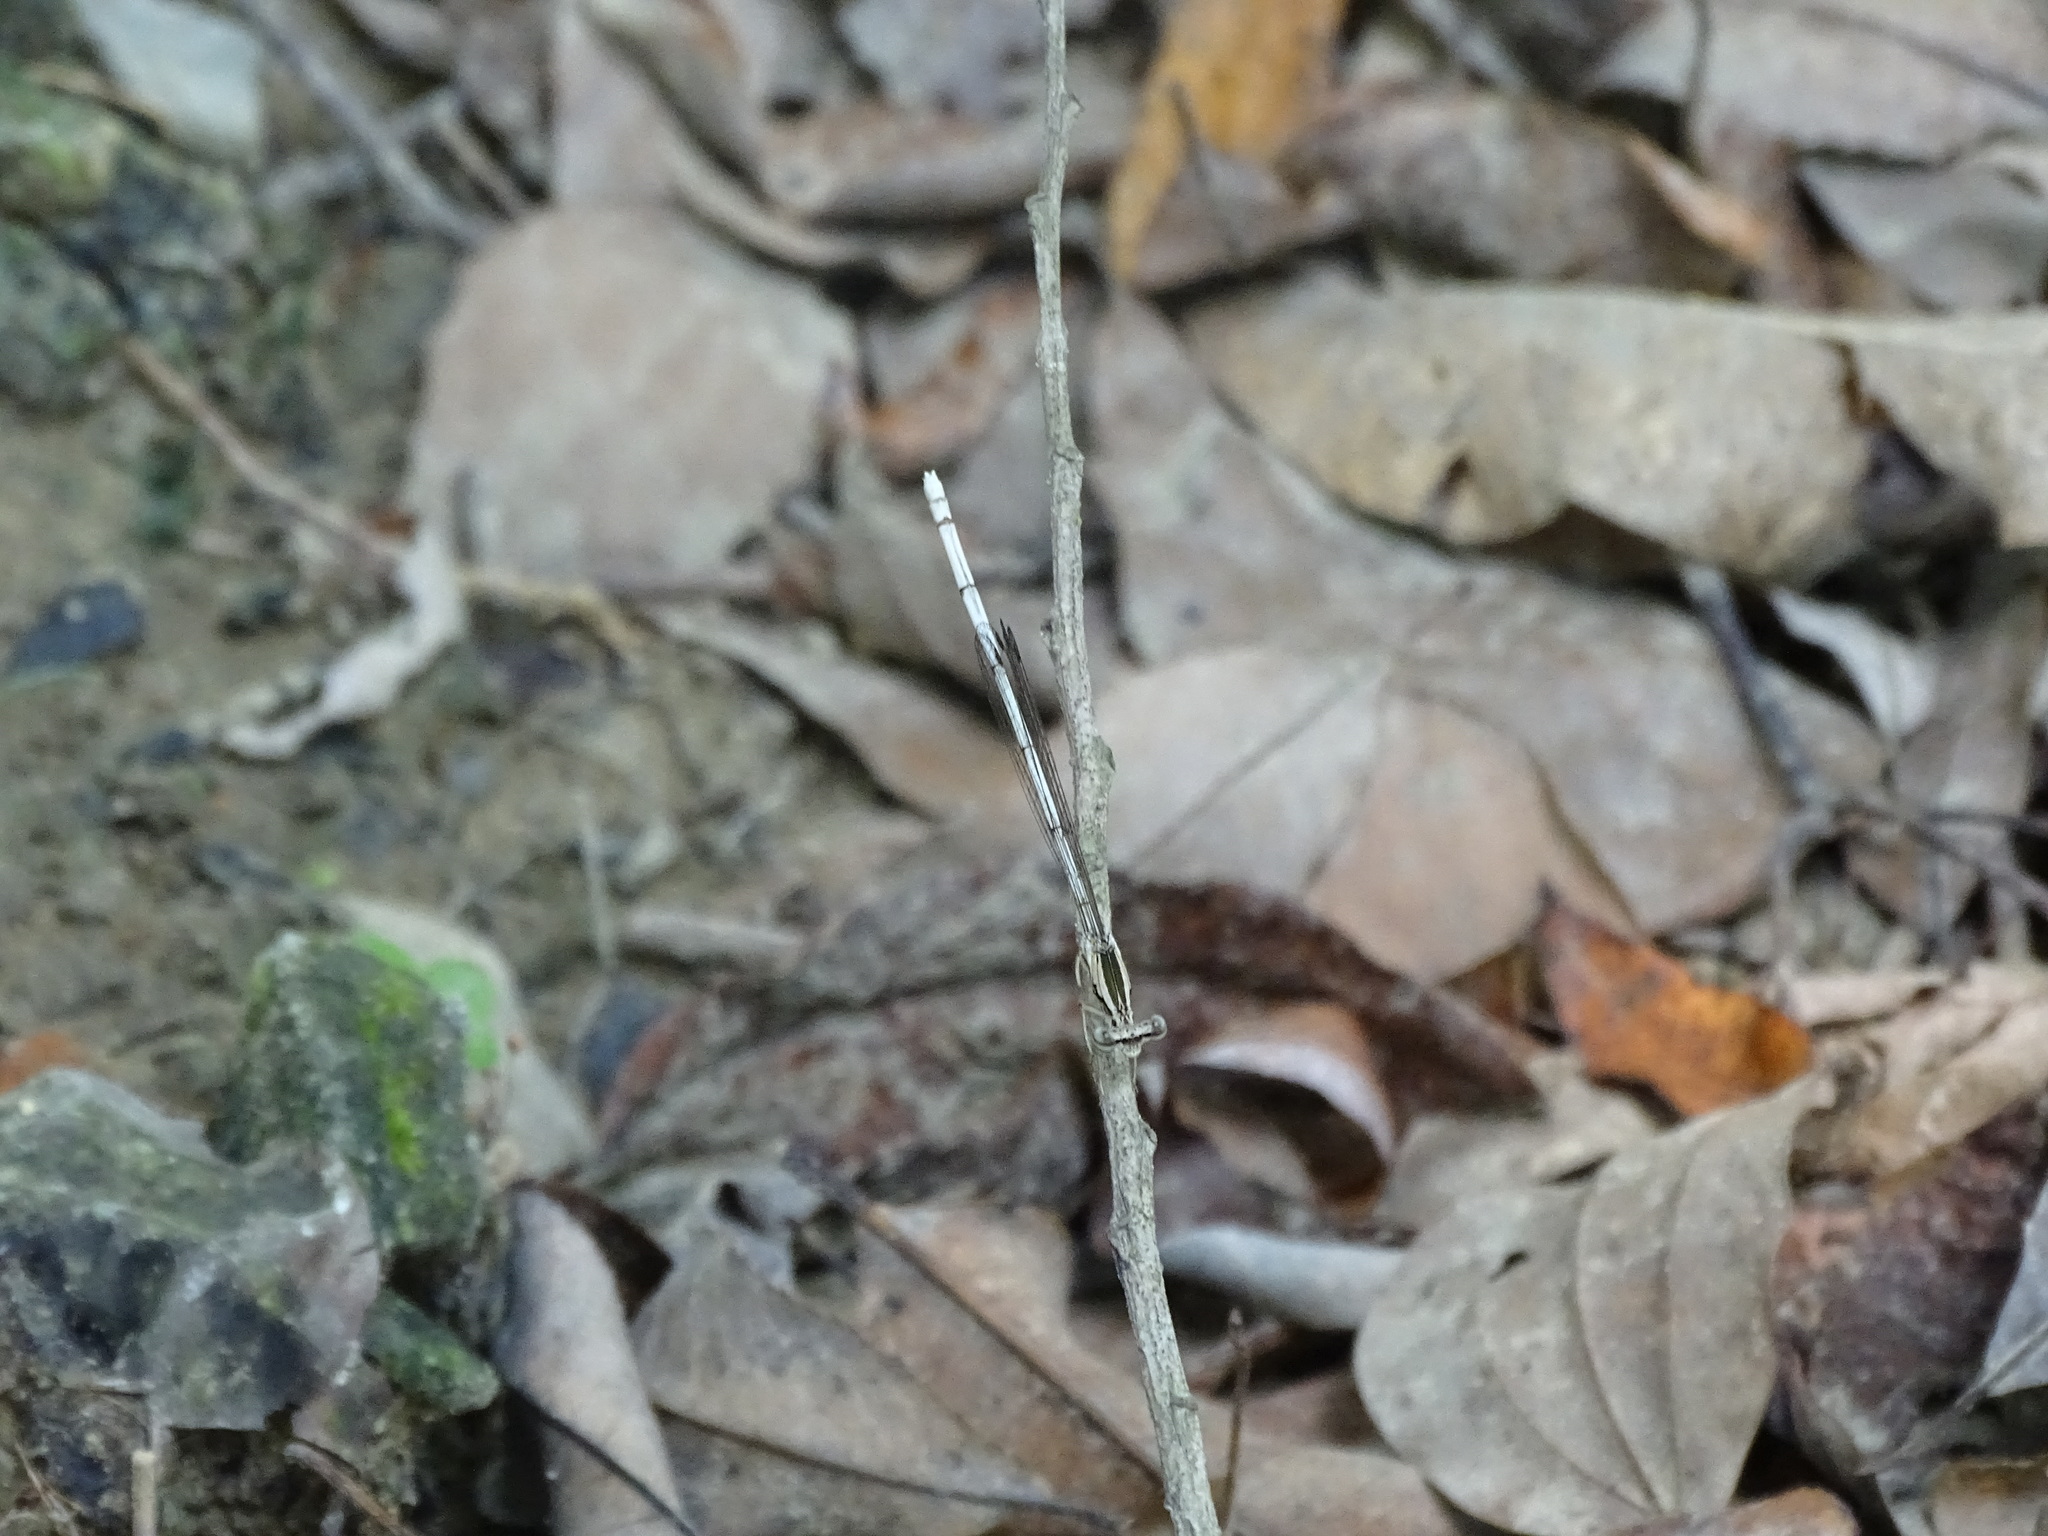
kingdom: Animalia
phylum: Arthropoda
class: Insecta
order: Odonata
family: Platycnemididae
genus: Copera
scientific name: Copera marginipes
